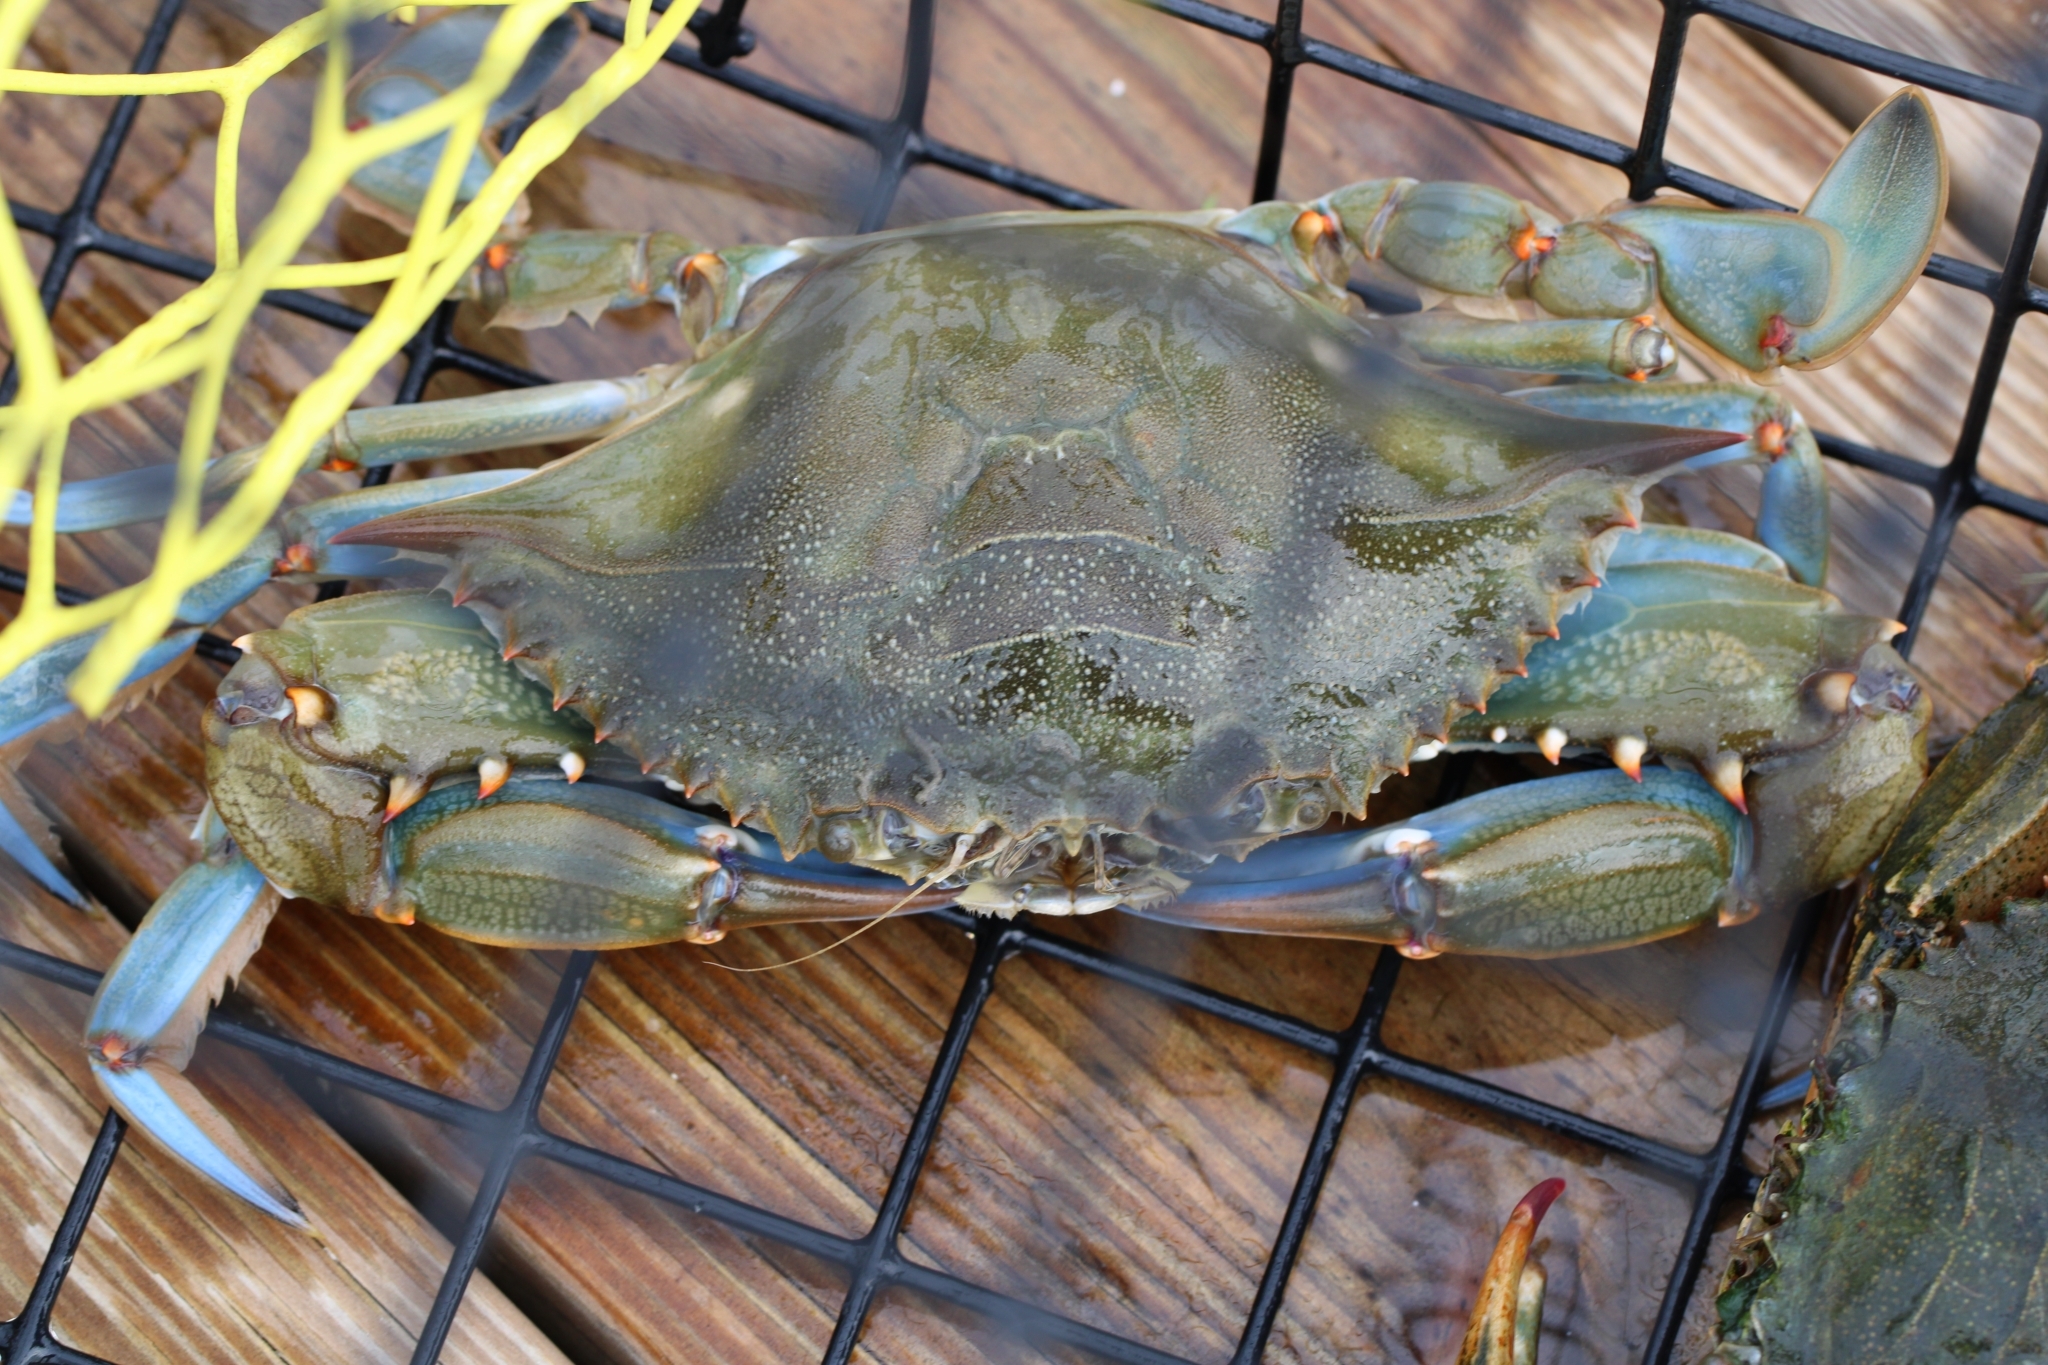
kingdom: Animalia
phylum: Arthropoda
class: Malacostraca
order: Decapoda
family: Portunidae
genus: Callinectes
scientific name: Callinectes sapidus
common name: Blue crab
